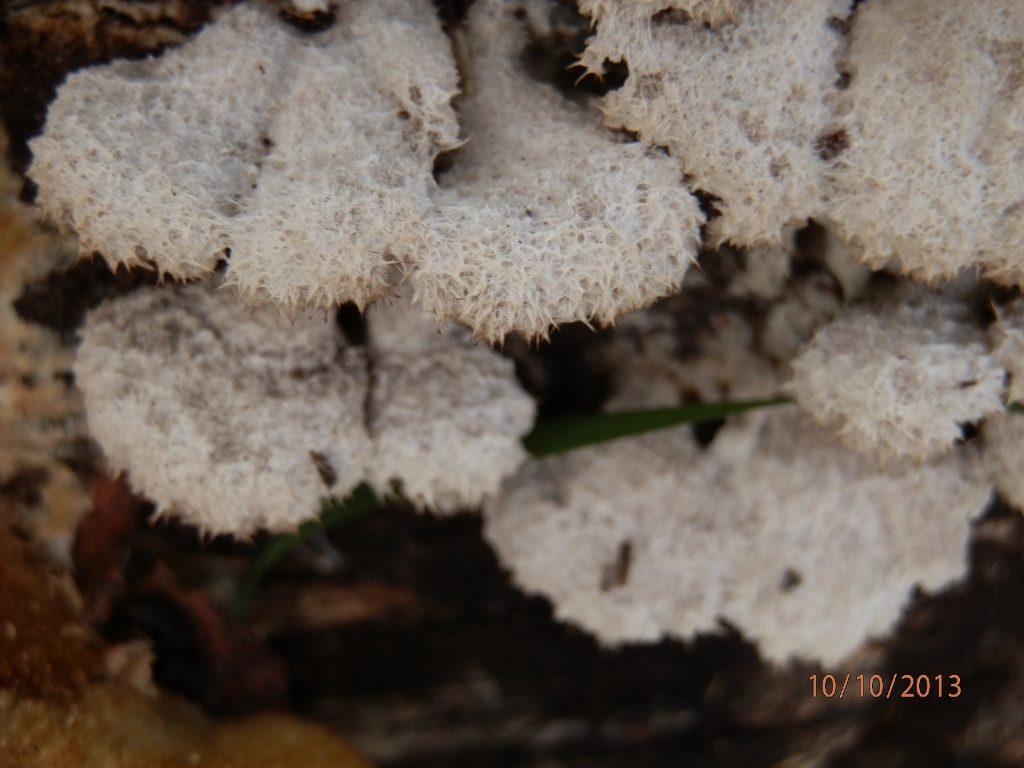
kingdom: Fungi
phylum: Basidiomycota
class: Agaricomycetes
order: Agaricales
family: Schizophyllaceae
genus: Schizophyllum
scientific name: Schizophyllum commune
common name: Common porecrust
